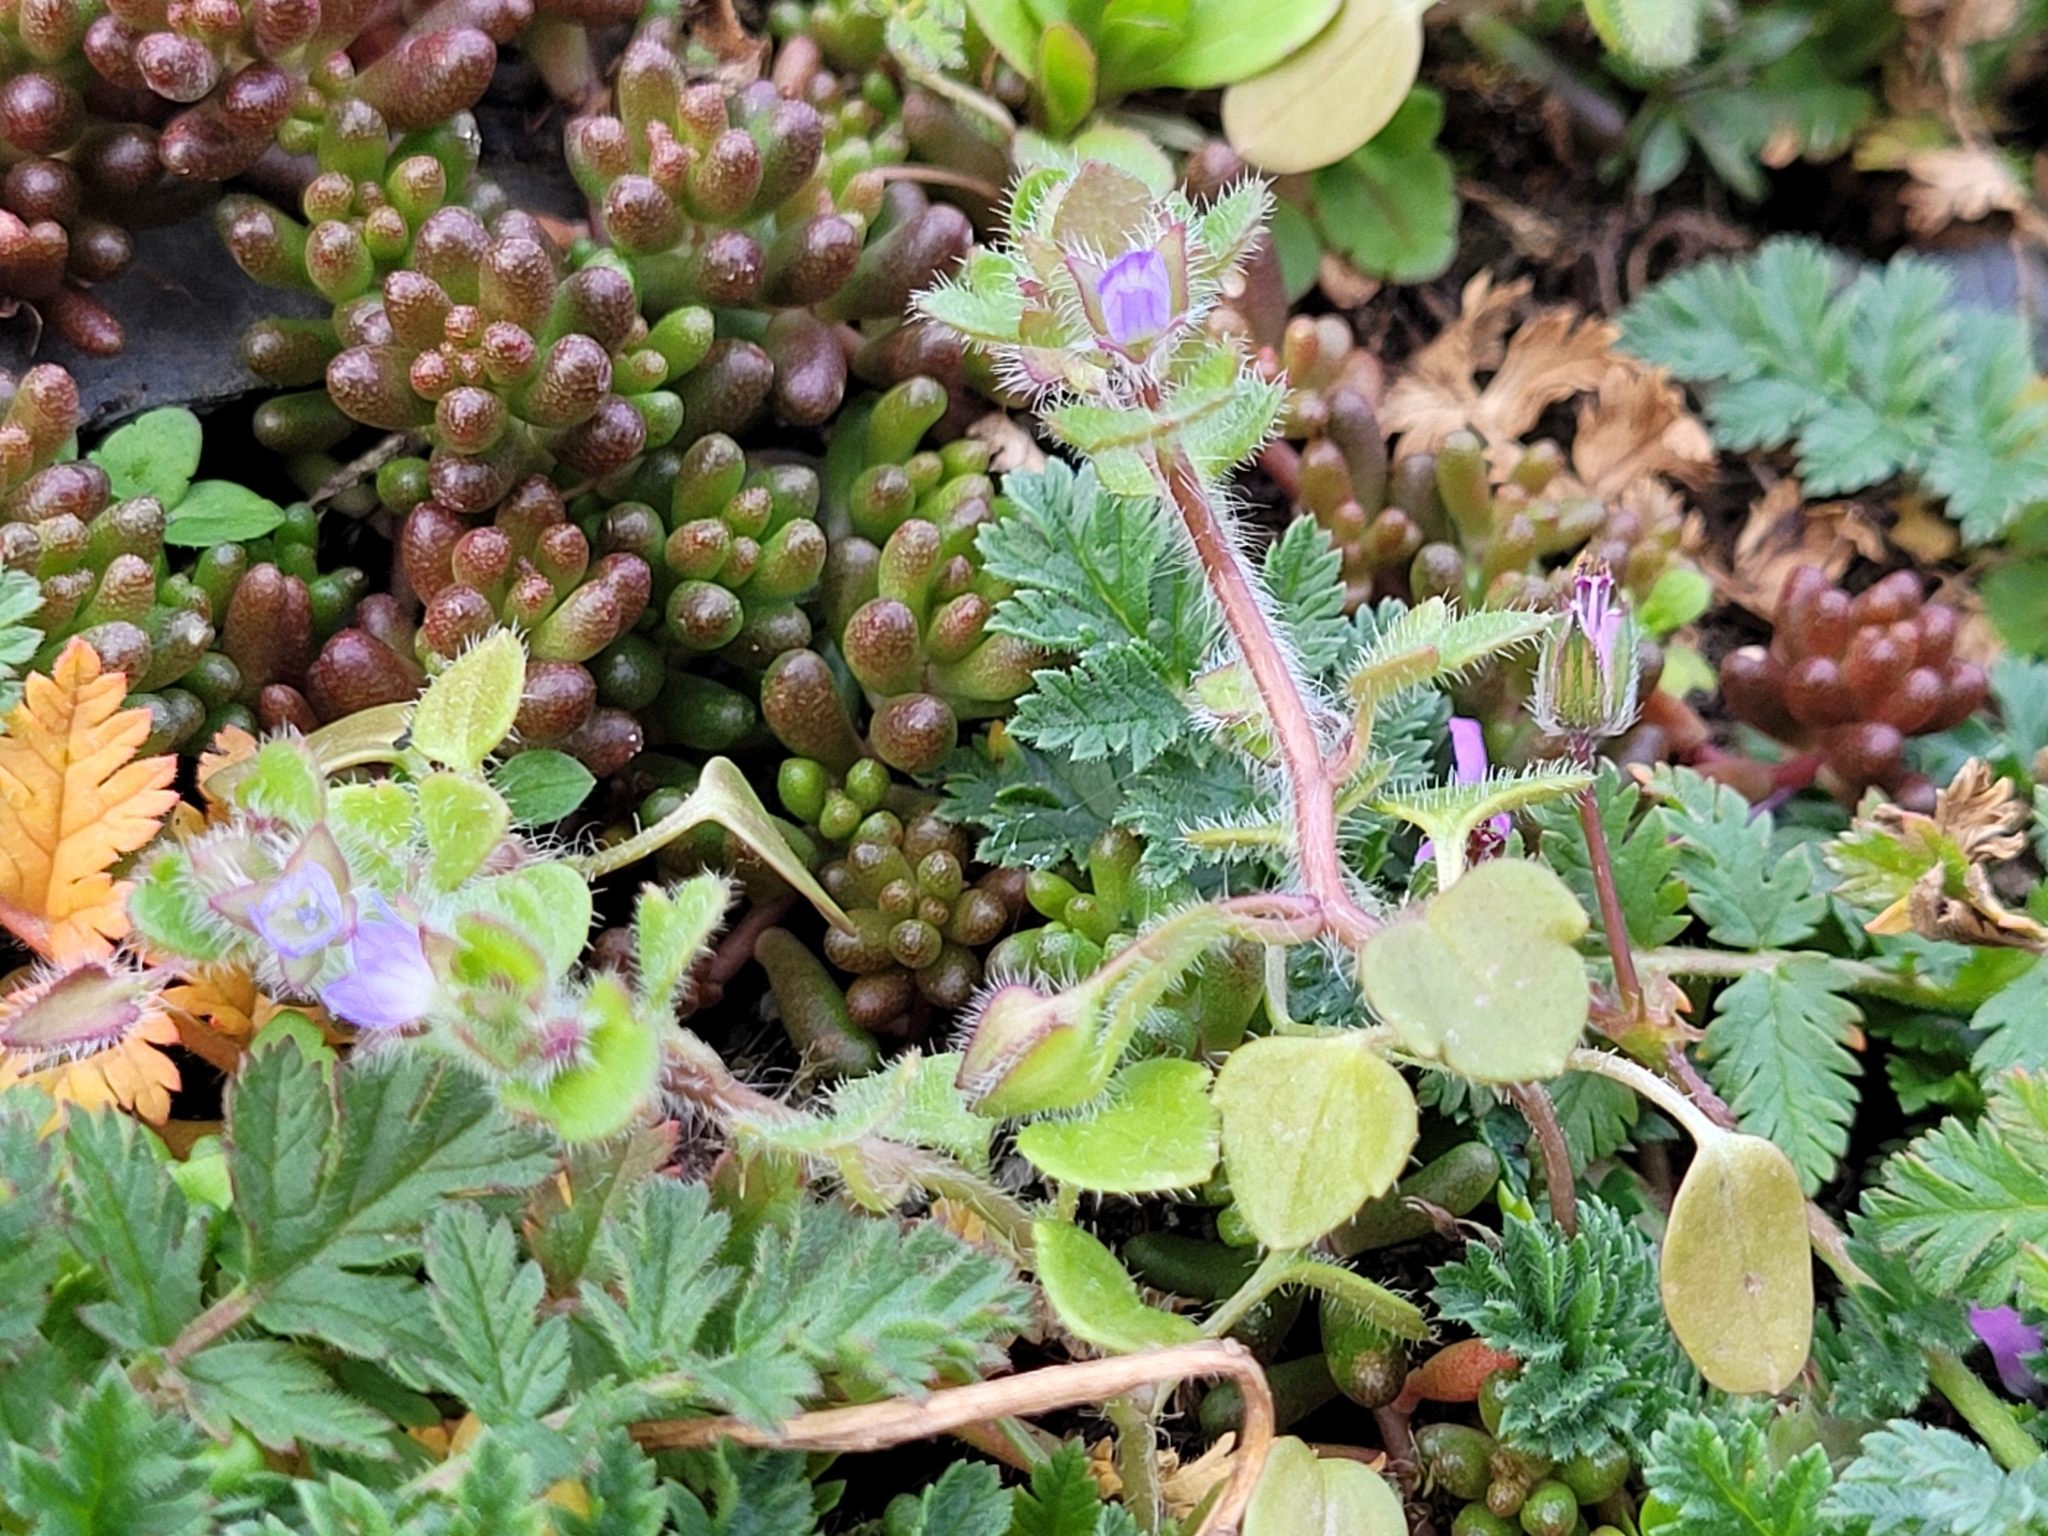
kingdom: Plantae
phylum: Tracheophyta
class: Magnoliopsida
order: Lamiales
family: Plantaginaceae
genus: Veronica
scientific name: Veronica hederifolia
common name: Ivy-leaved speedwell
